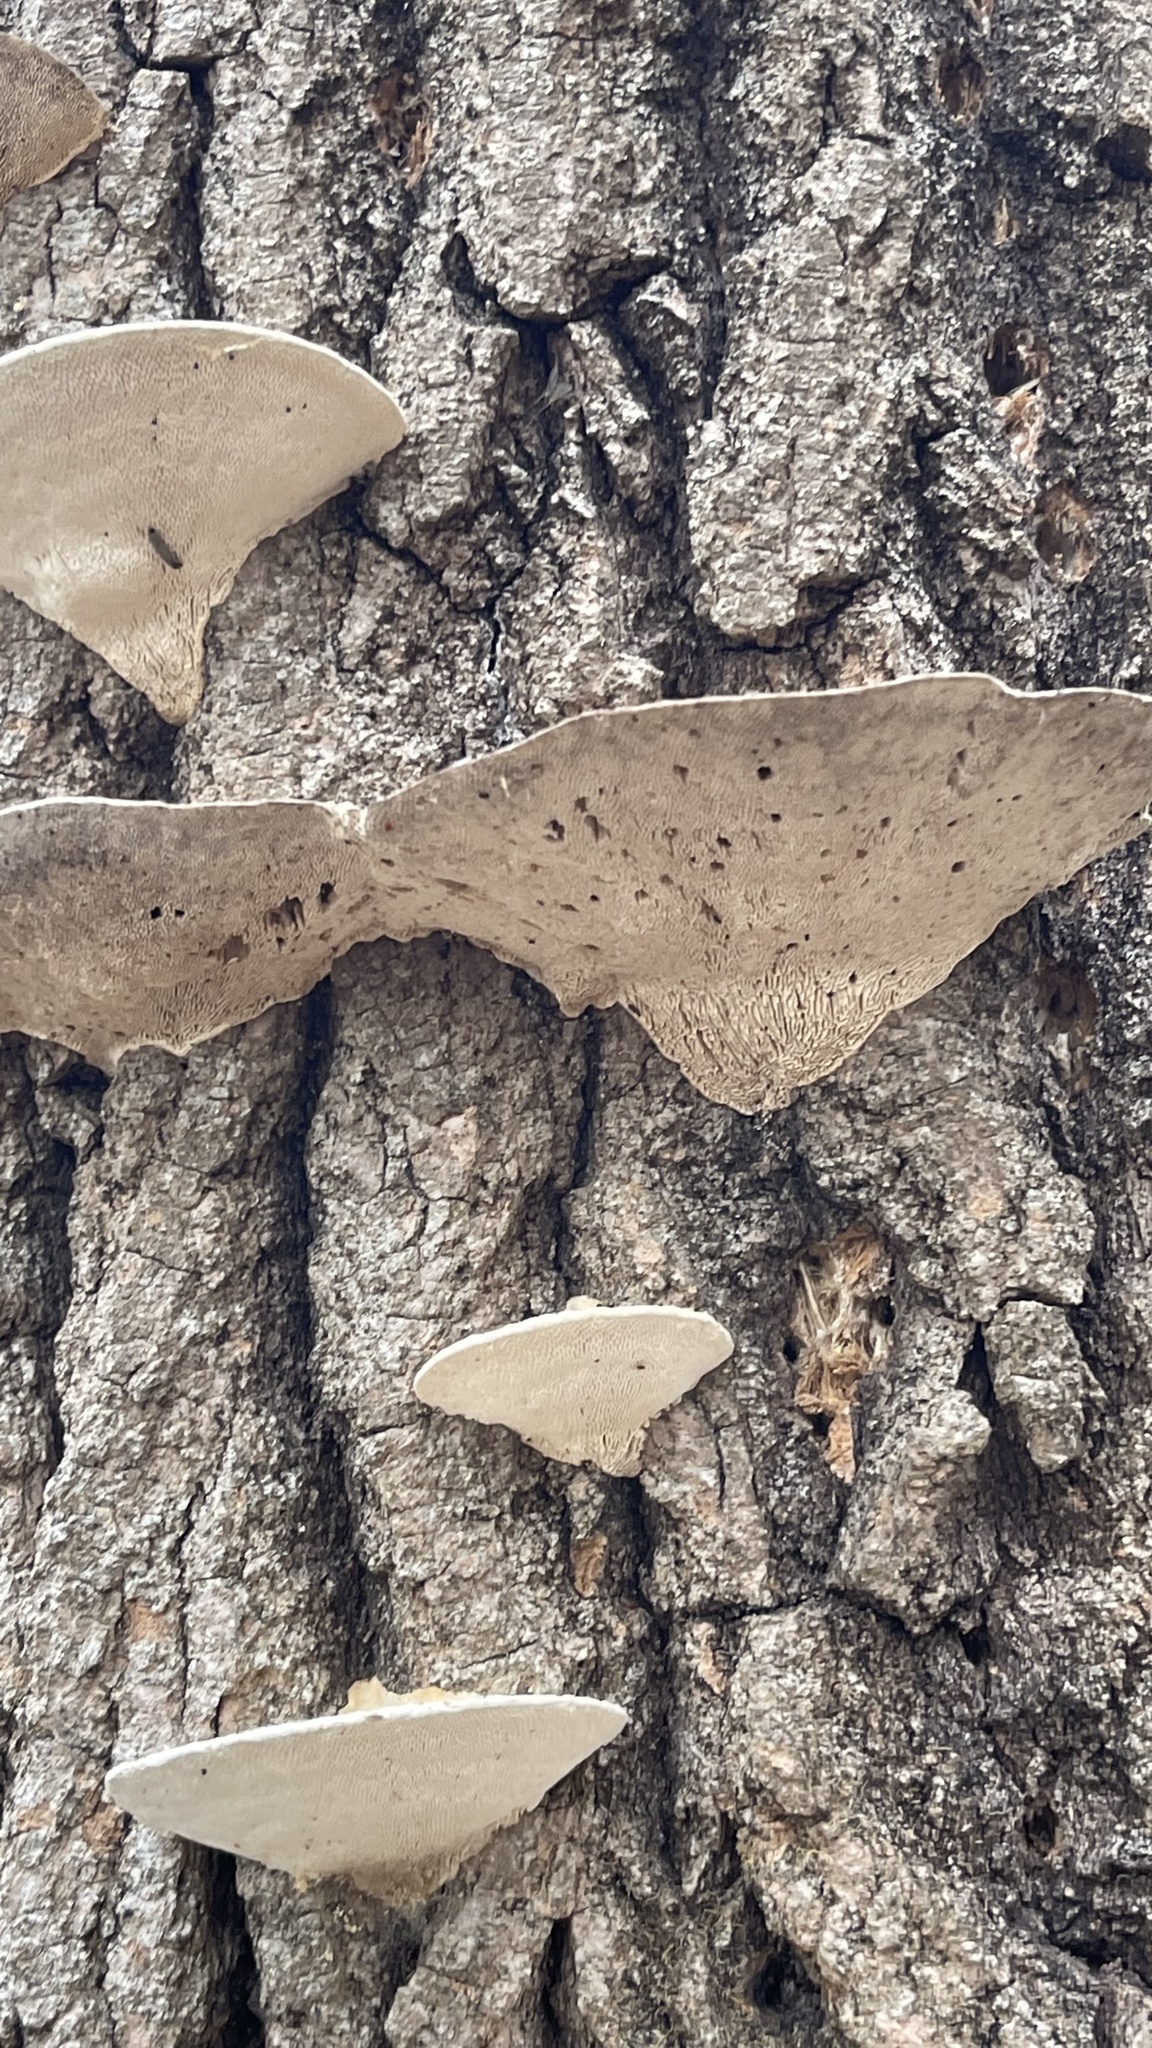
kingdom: Fungi
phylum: Basidiomycota
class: Agaricomycetes
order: Polyporales
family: Polyporaceae
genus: Trametes
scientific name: Trametes gibbosa
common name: Lumpy bracket
